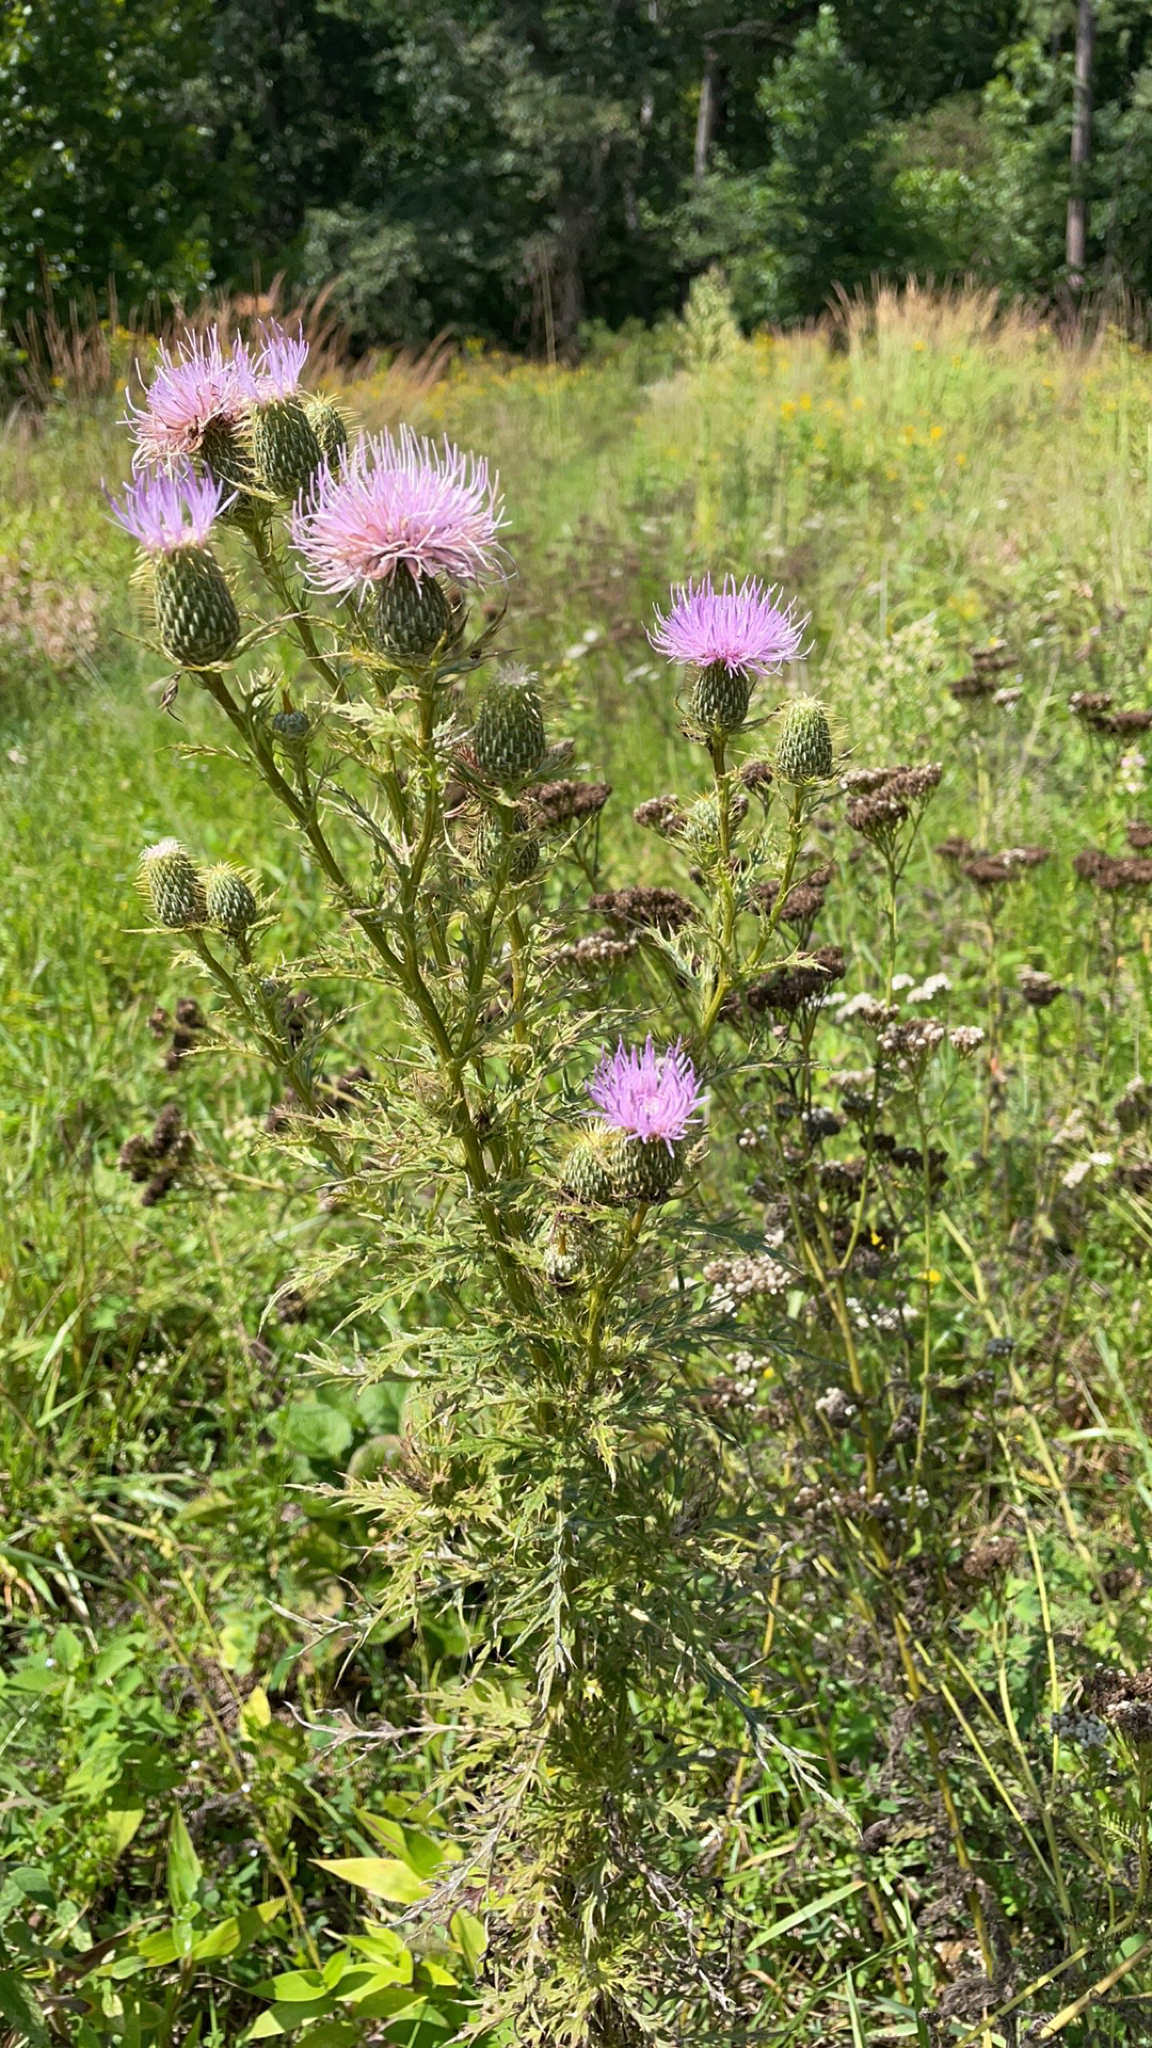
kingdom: Plantae
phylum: Tracheophyta
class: Magnoliopsida
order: Asterales
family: Asteraceae
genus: Cirsium
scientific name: Cirsium discolor
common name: Field thistle
